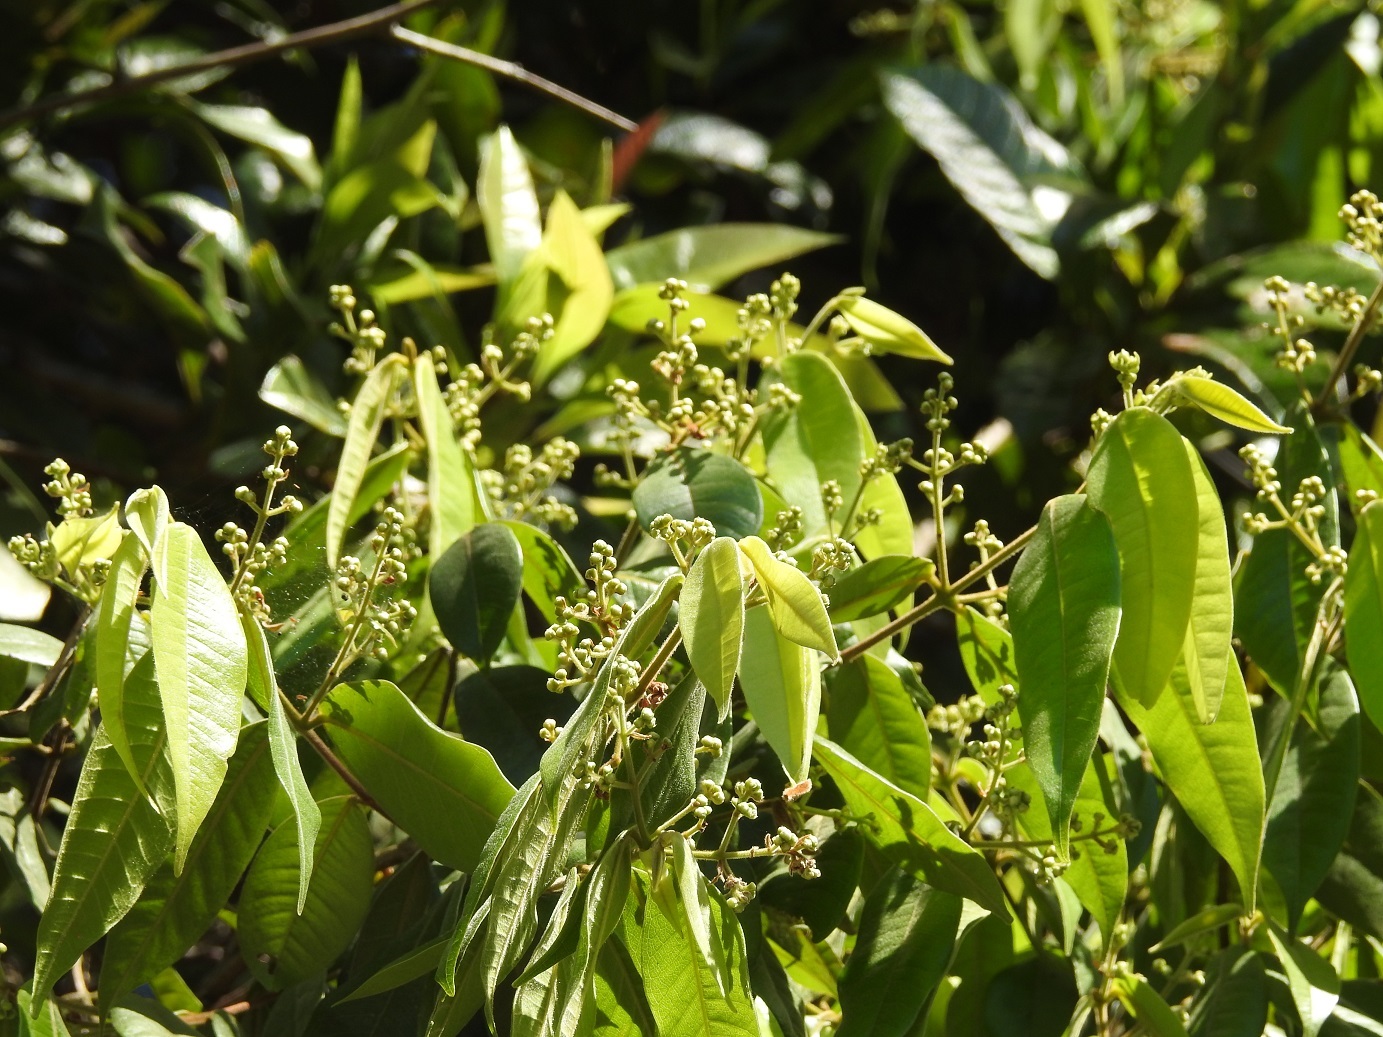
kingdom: Plantae
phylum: Tracheophyta
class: Magnoliopsida
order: Myrtales
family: Myrtaceae
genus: Myrcia
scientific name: Myrcia neovenulosa
